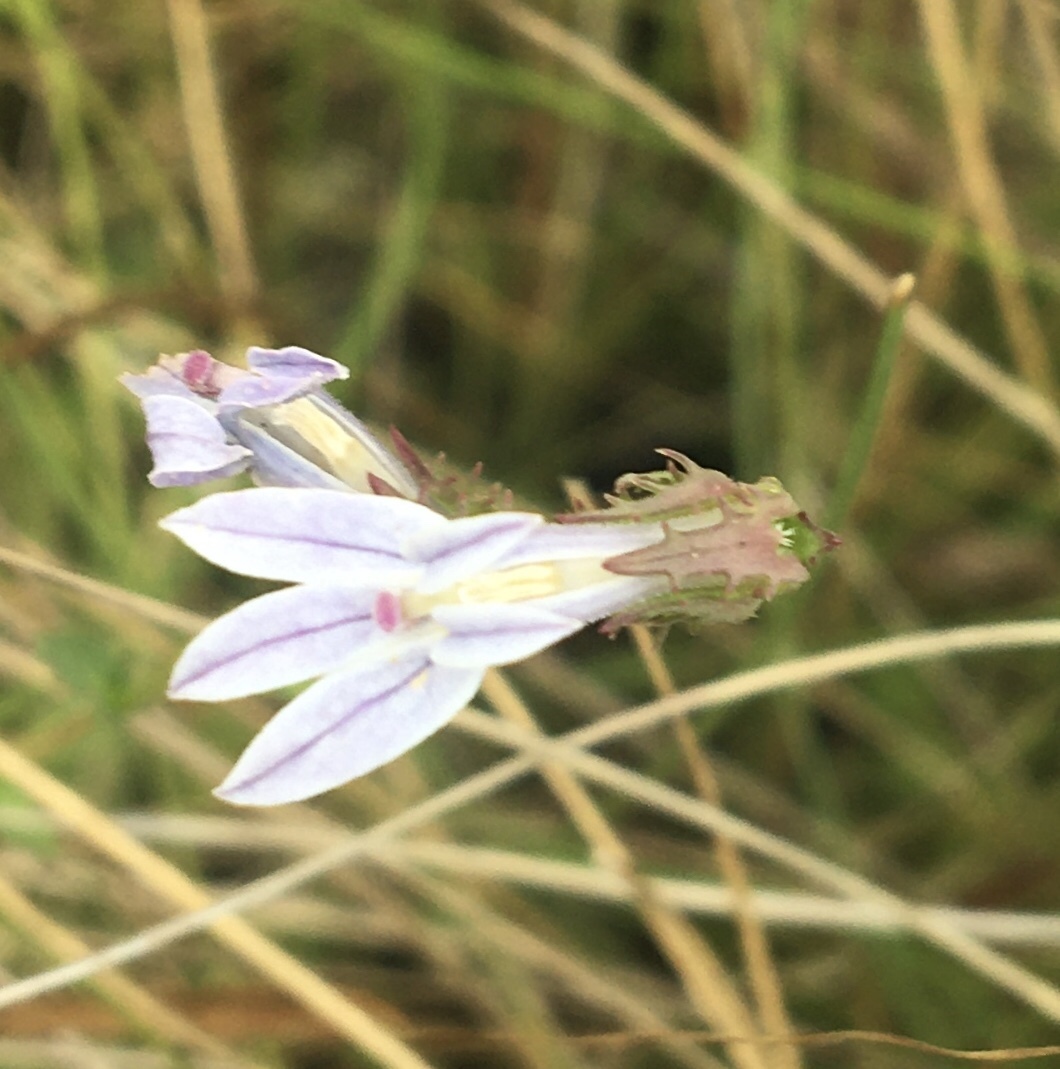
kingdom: Plantae
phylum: Tracheophyta
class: Magnoliopsida
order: Asterales
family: Campanulaceae
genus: Lobelia
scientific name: Lobelia brevifolia
